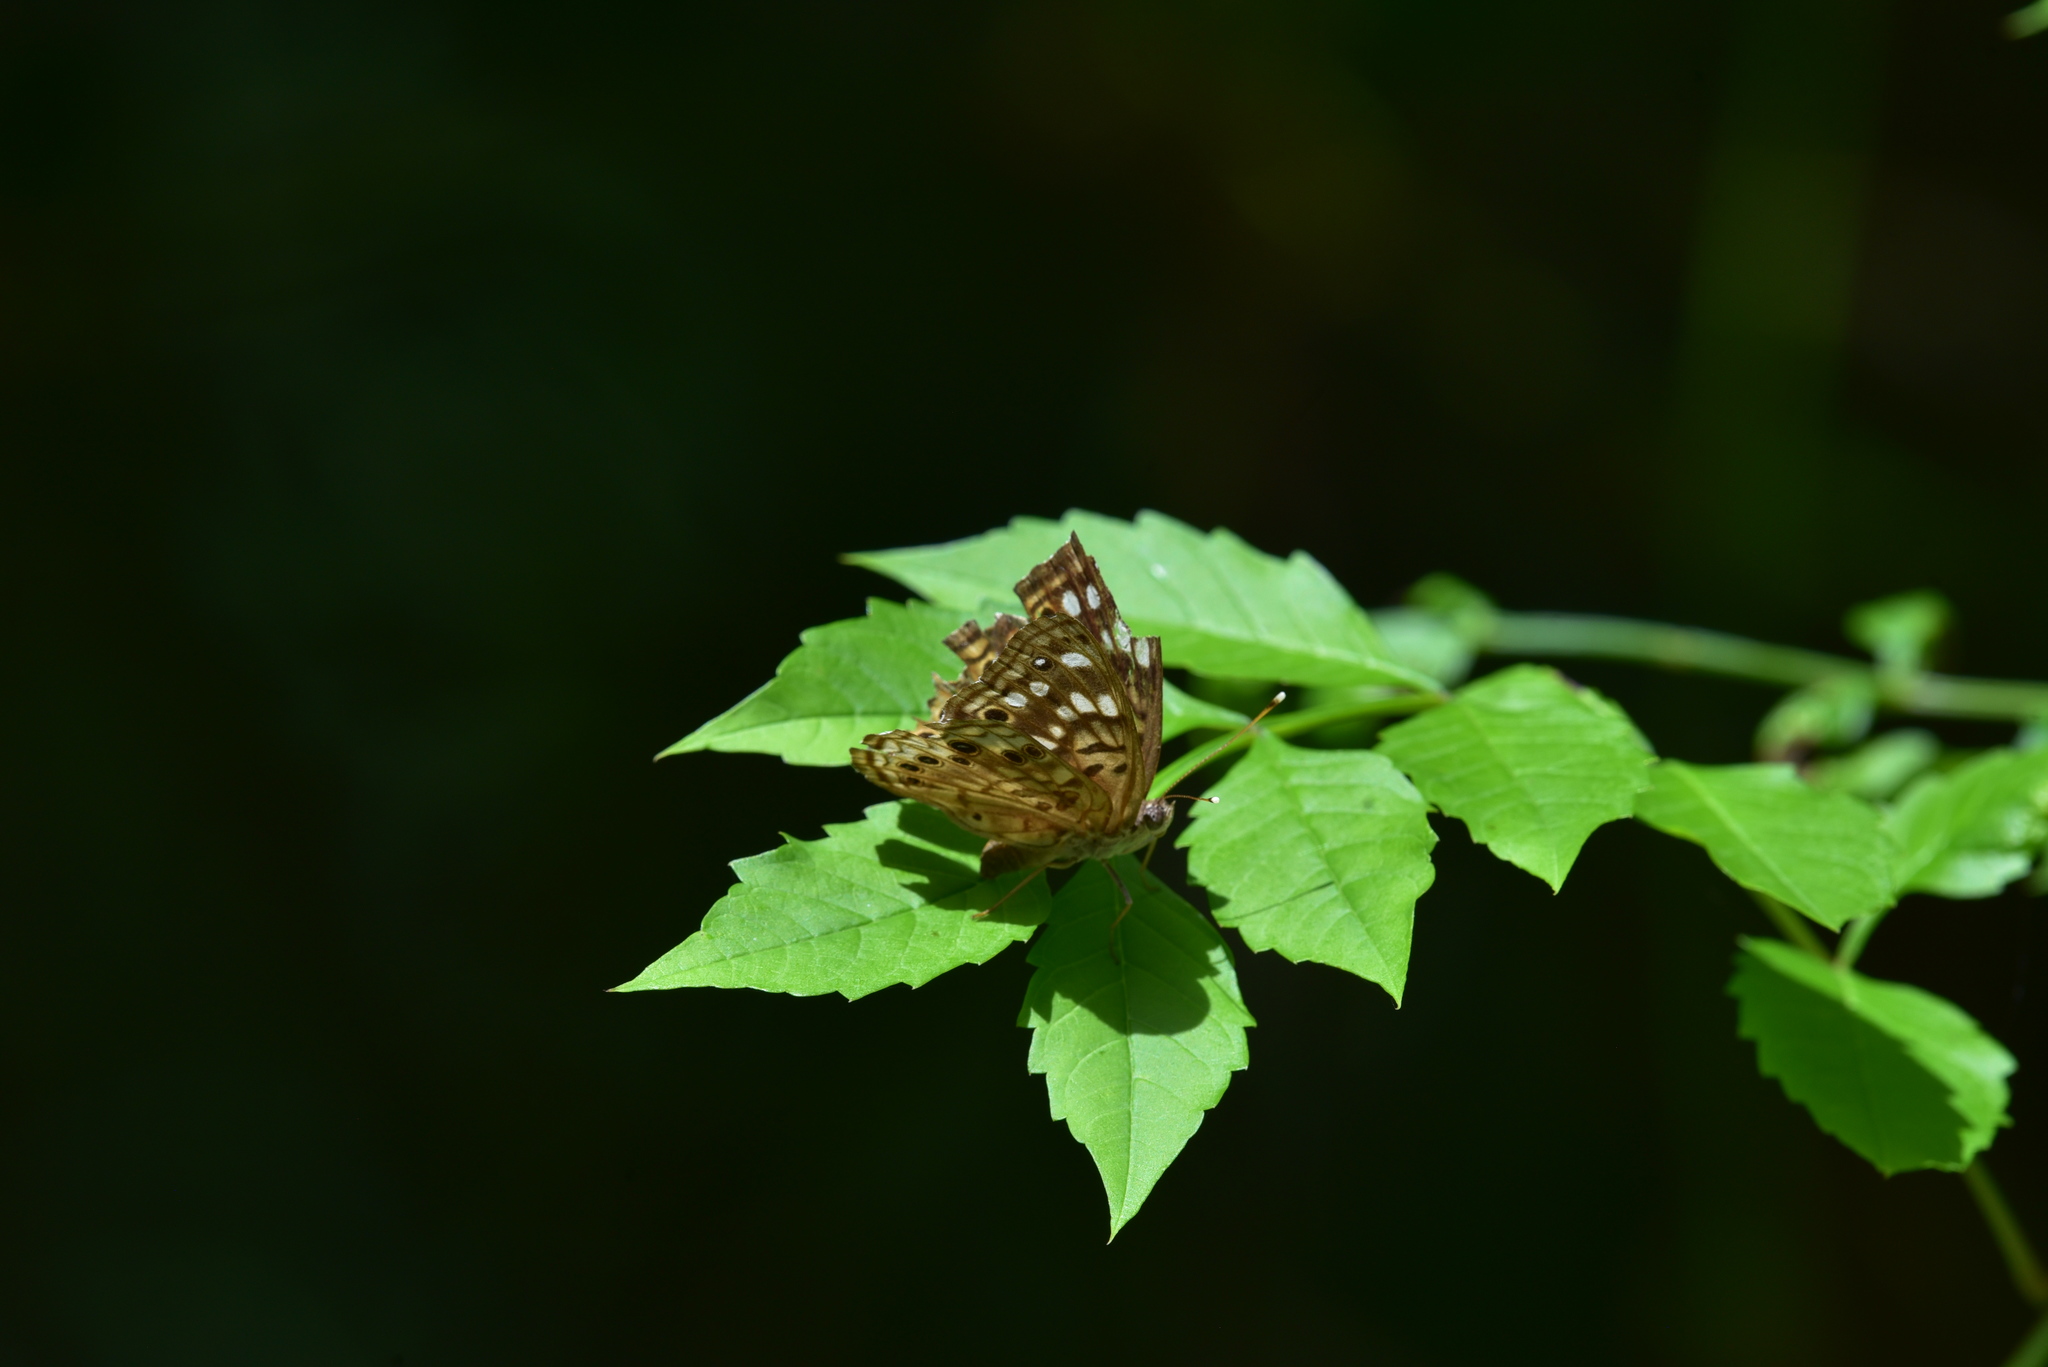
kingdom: Animalia
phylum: Arthropoda
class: Insecta
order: Lepidoptera
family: Nymphalidae
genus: Asterocampa
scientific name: Asterocampa celtis
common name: Hackberry emperor
